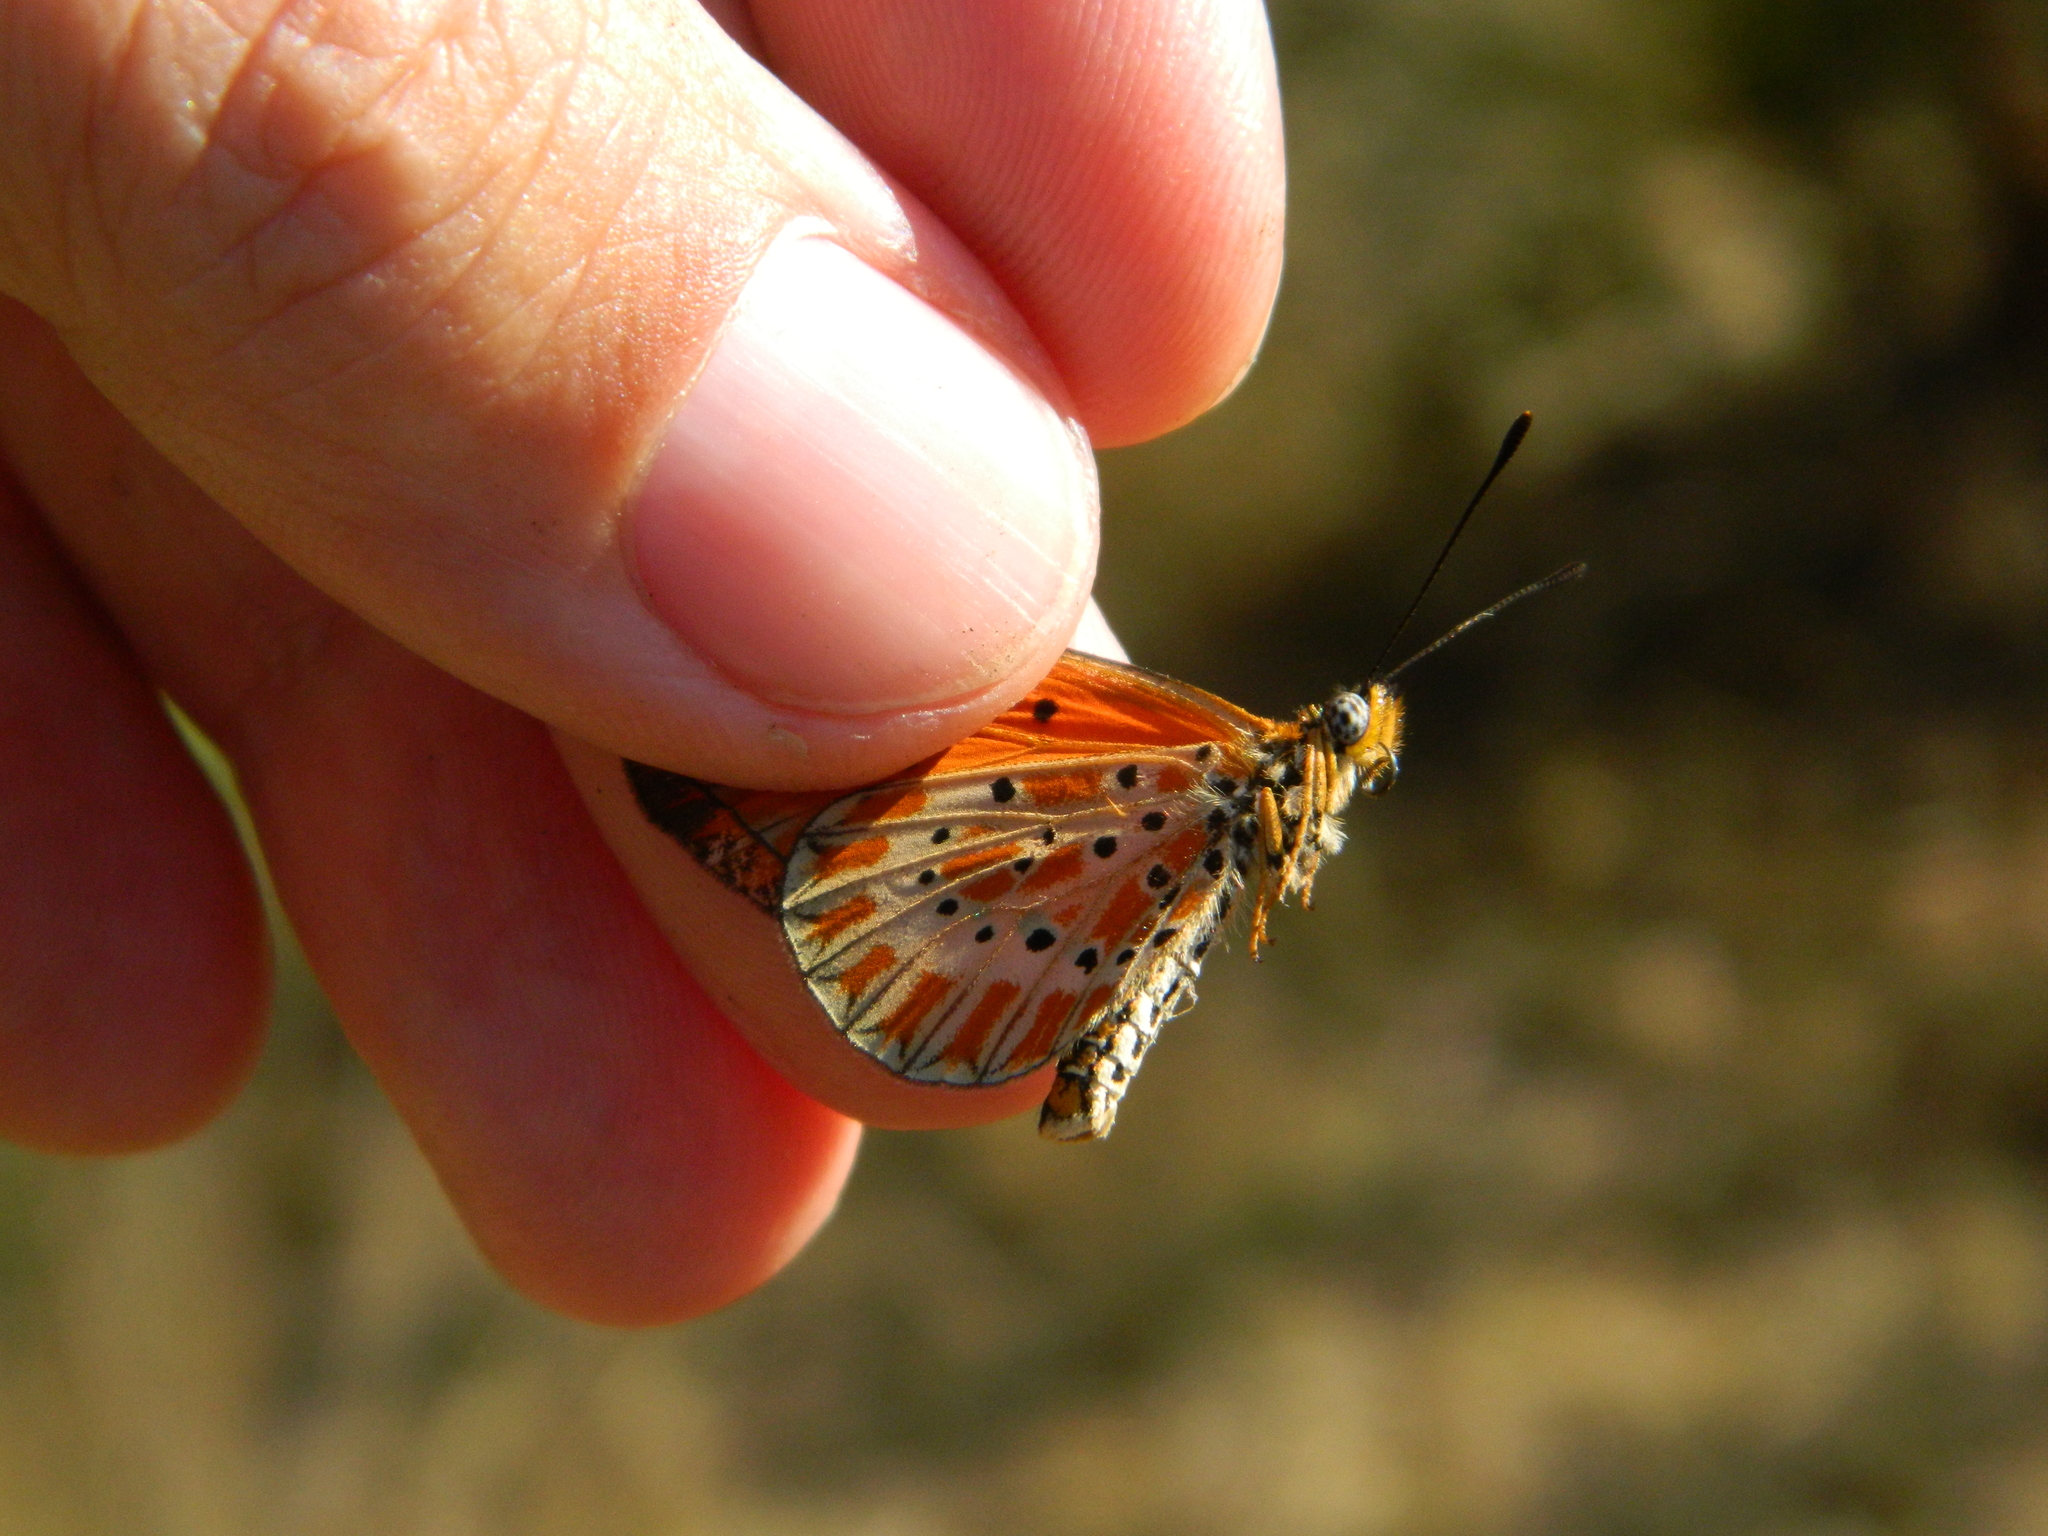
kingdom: Animalia
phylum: Arthropoda
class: Insecta
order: Lepidoptera
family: Nymphalidae
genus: Acraea
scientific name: Acraea
